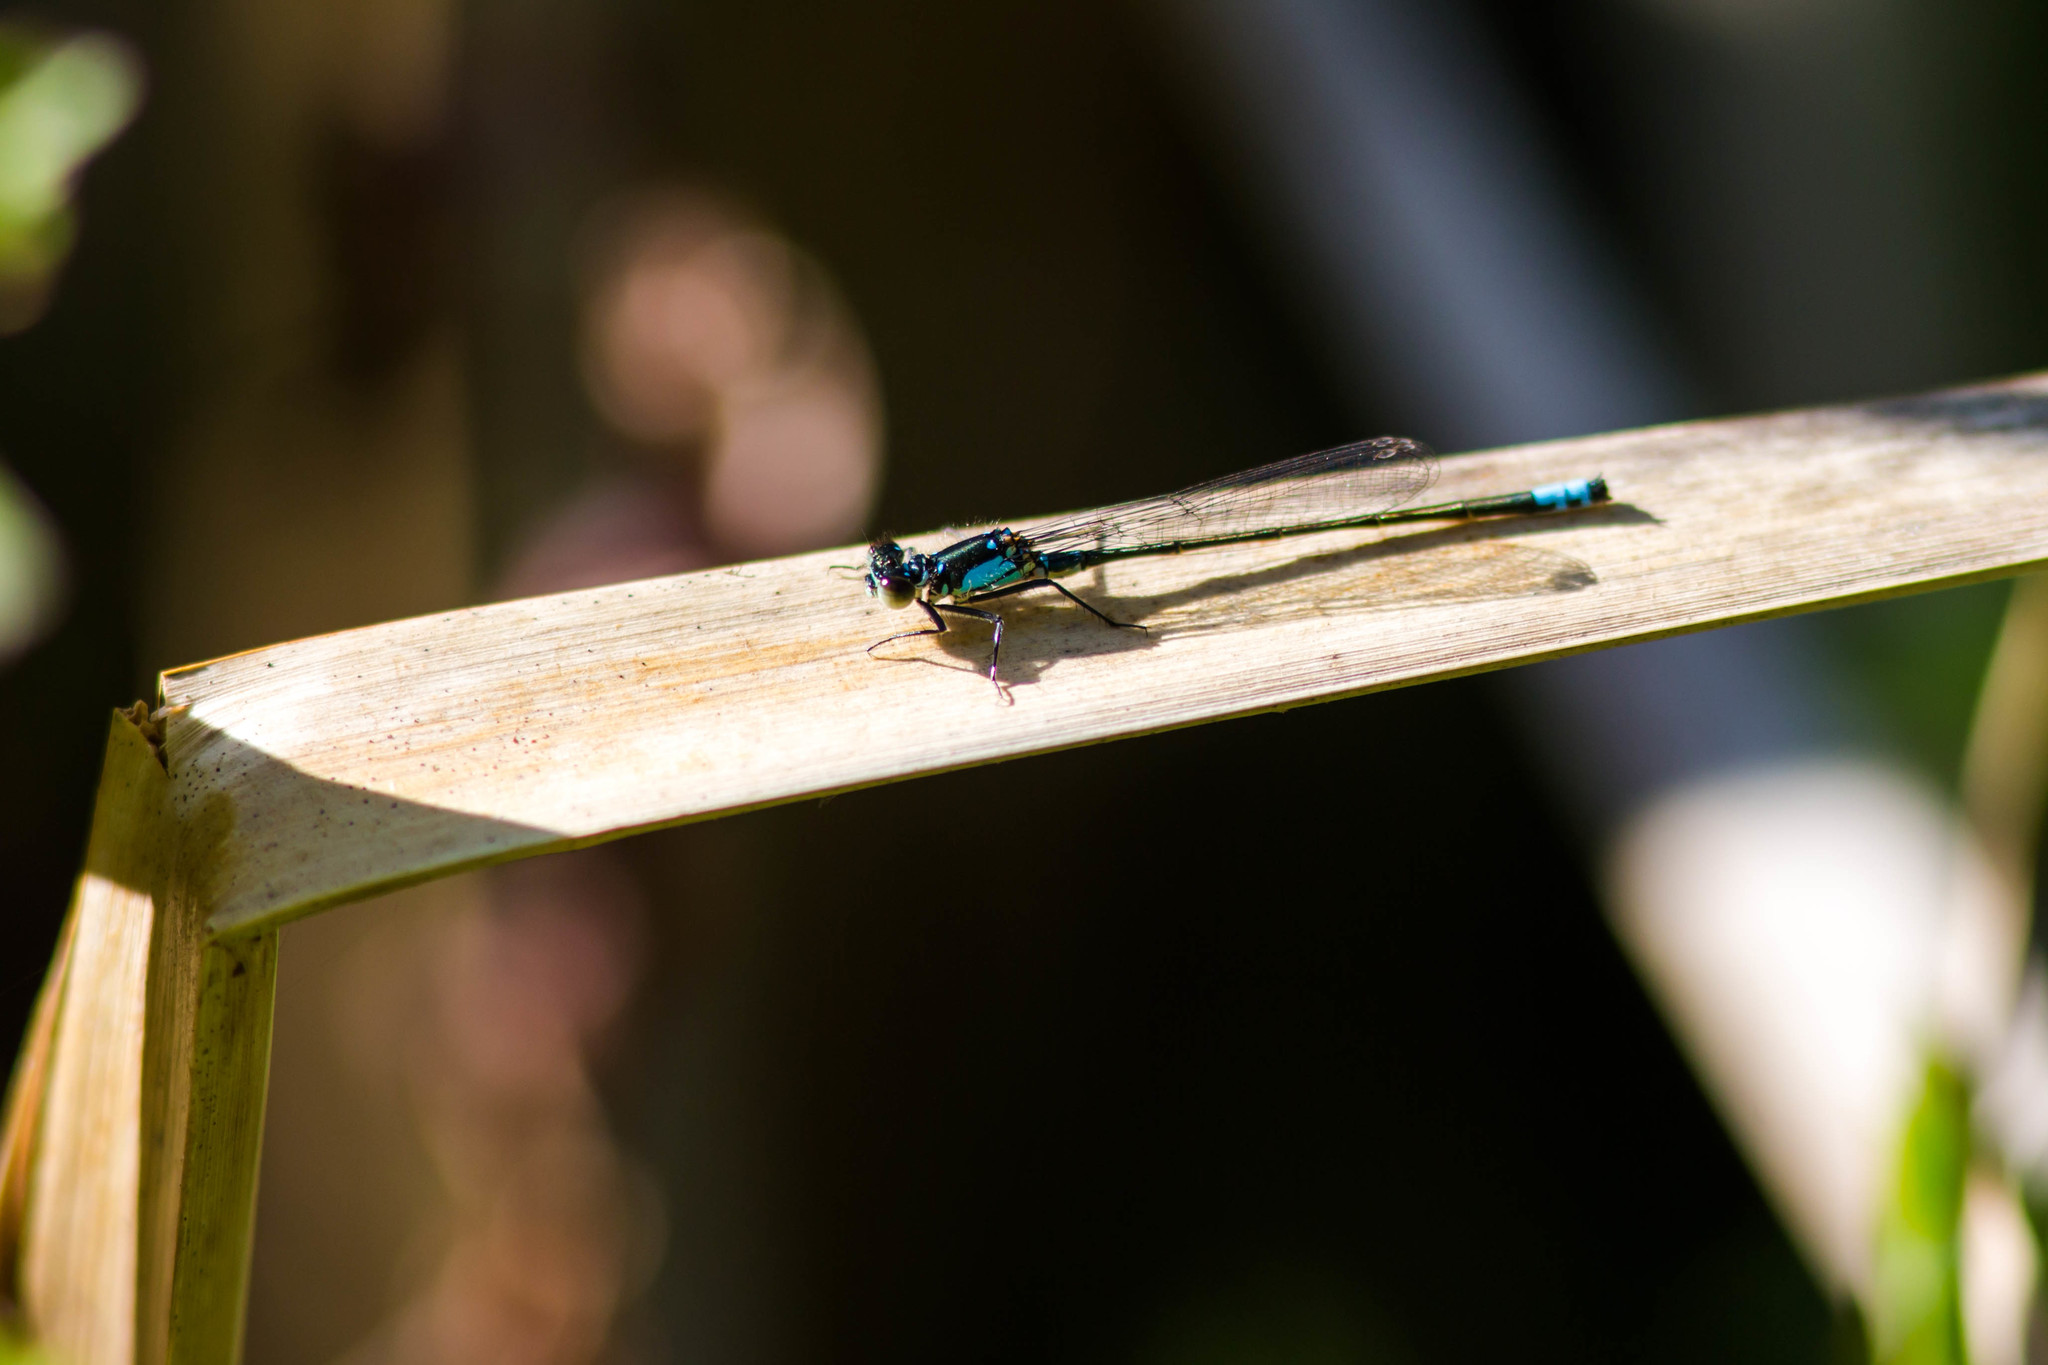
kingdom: Animalia
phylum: Arthropoda
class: Insecta
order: Odonata
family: Coenagrionidae
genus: Ischnura
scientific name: Ischnura cervula
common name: Pacific forktail
